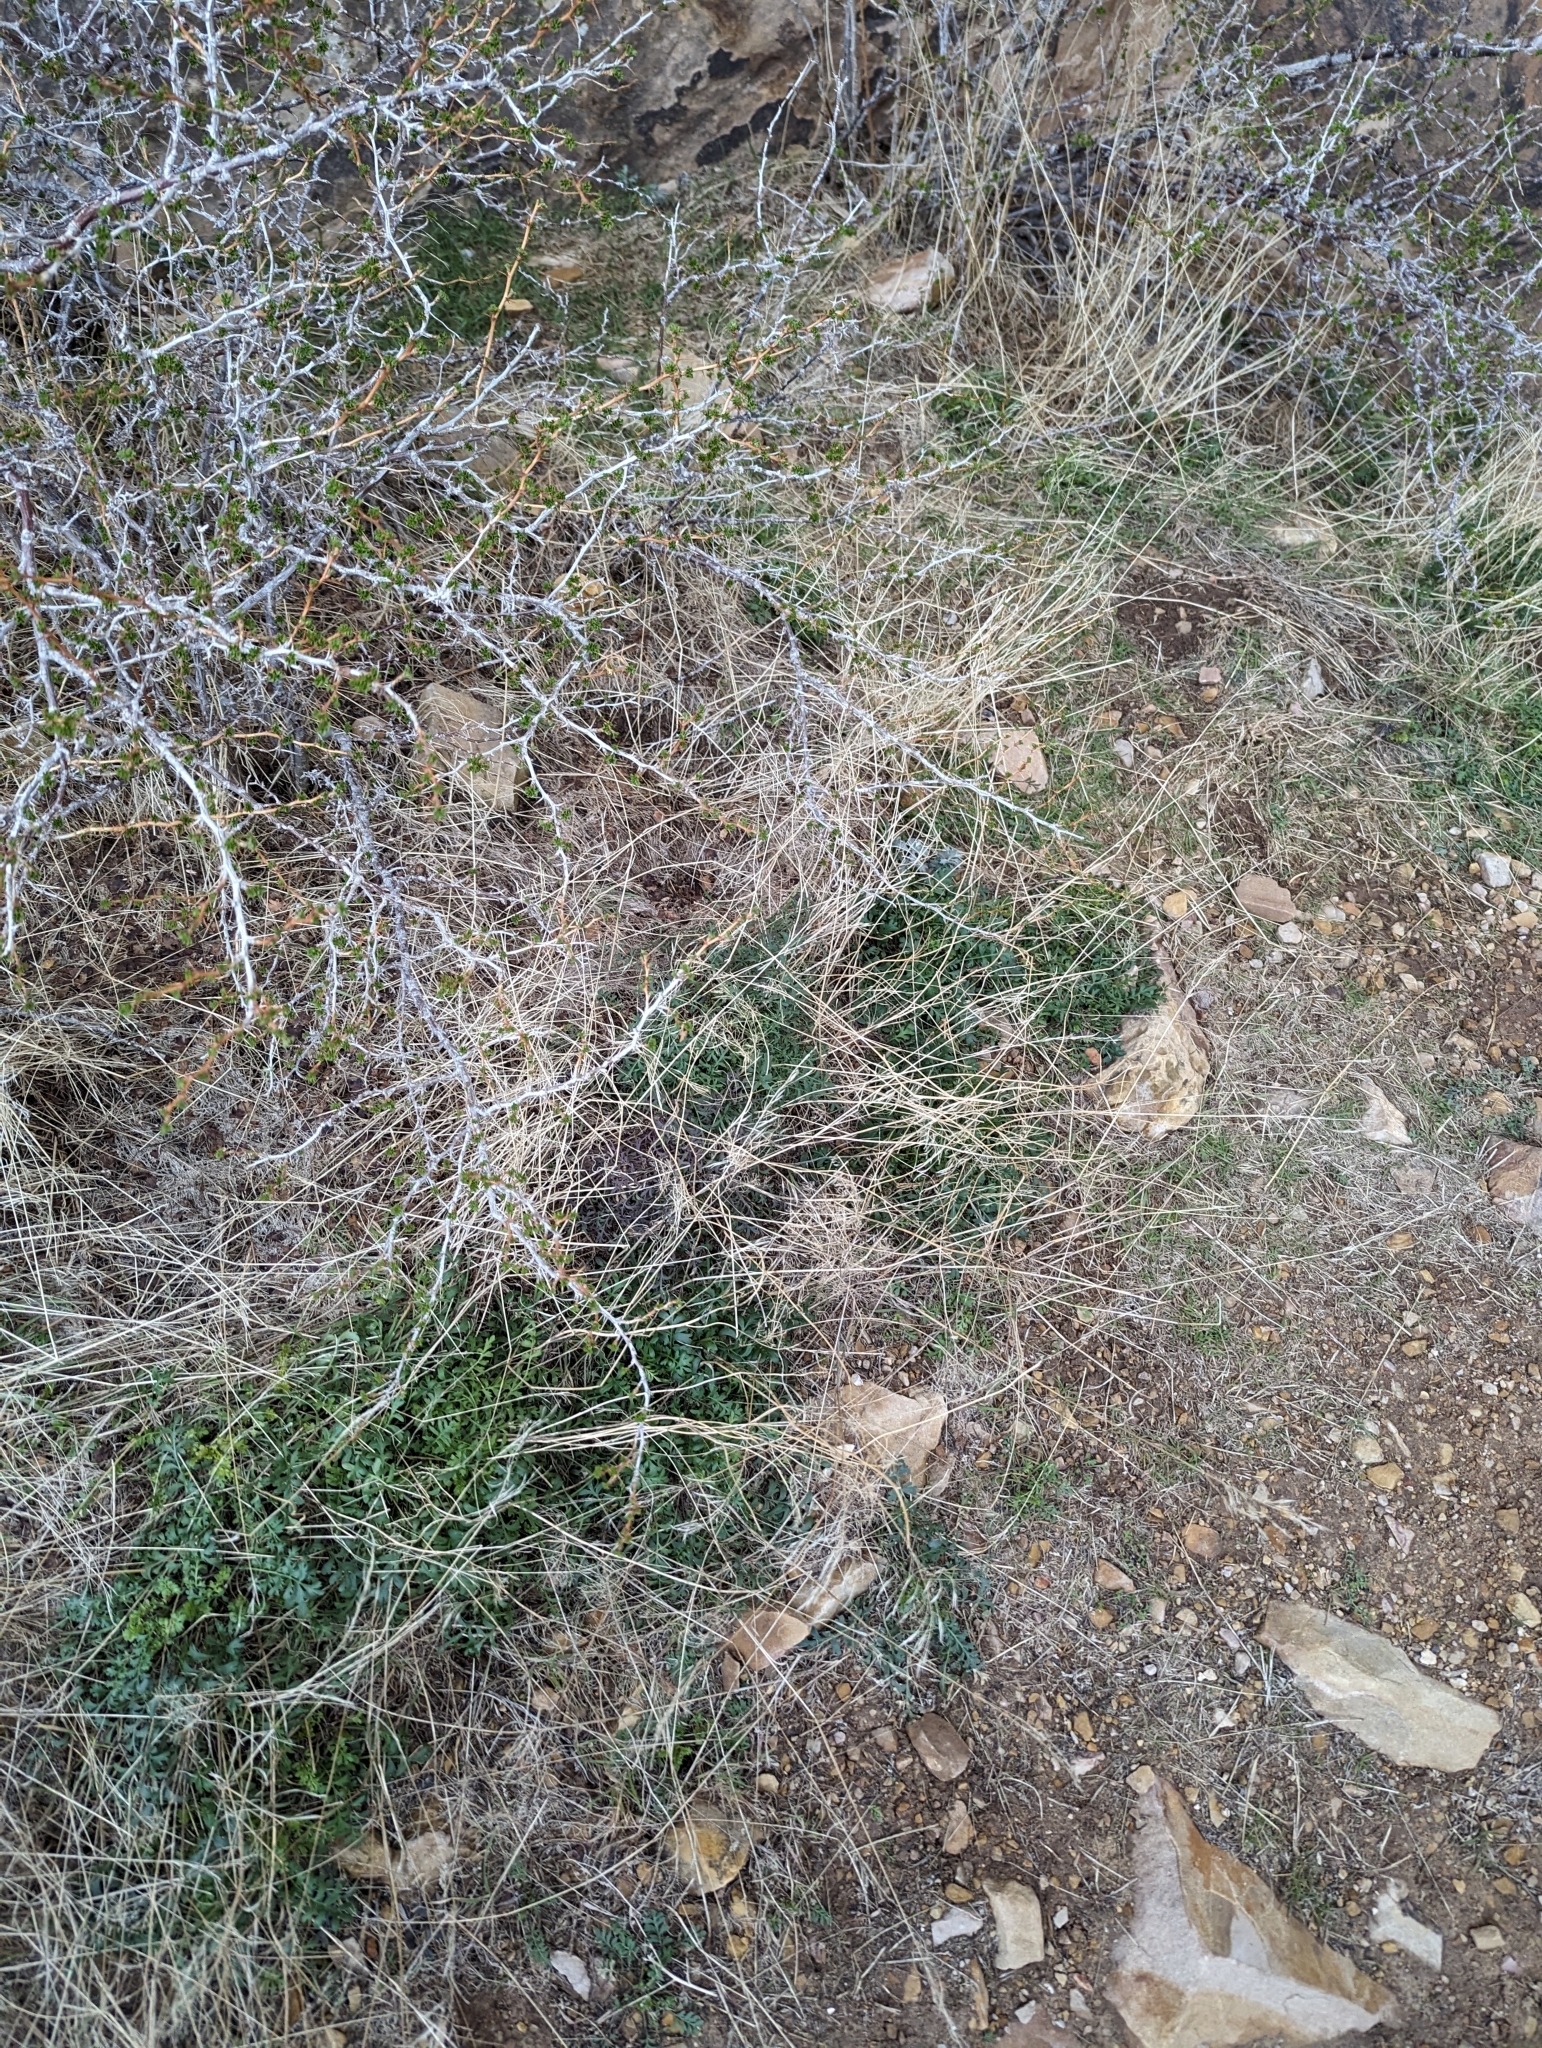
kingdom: Plantae
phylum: Tracheophyta
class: Magnoliopsida
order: Asterales
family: Asteraceae
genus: Packera
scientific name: Packera multilobata
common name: Lobe-leaf groundsel
